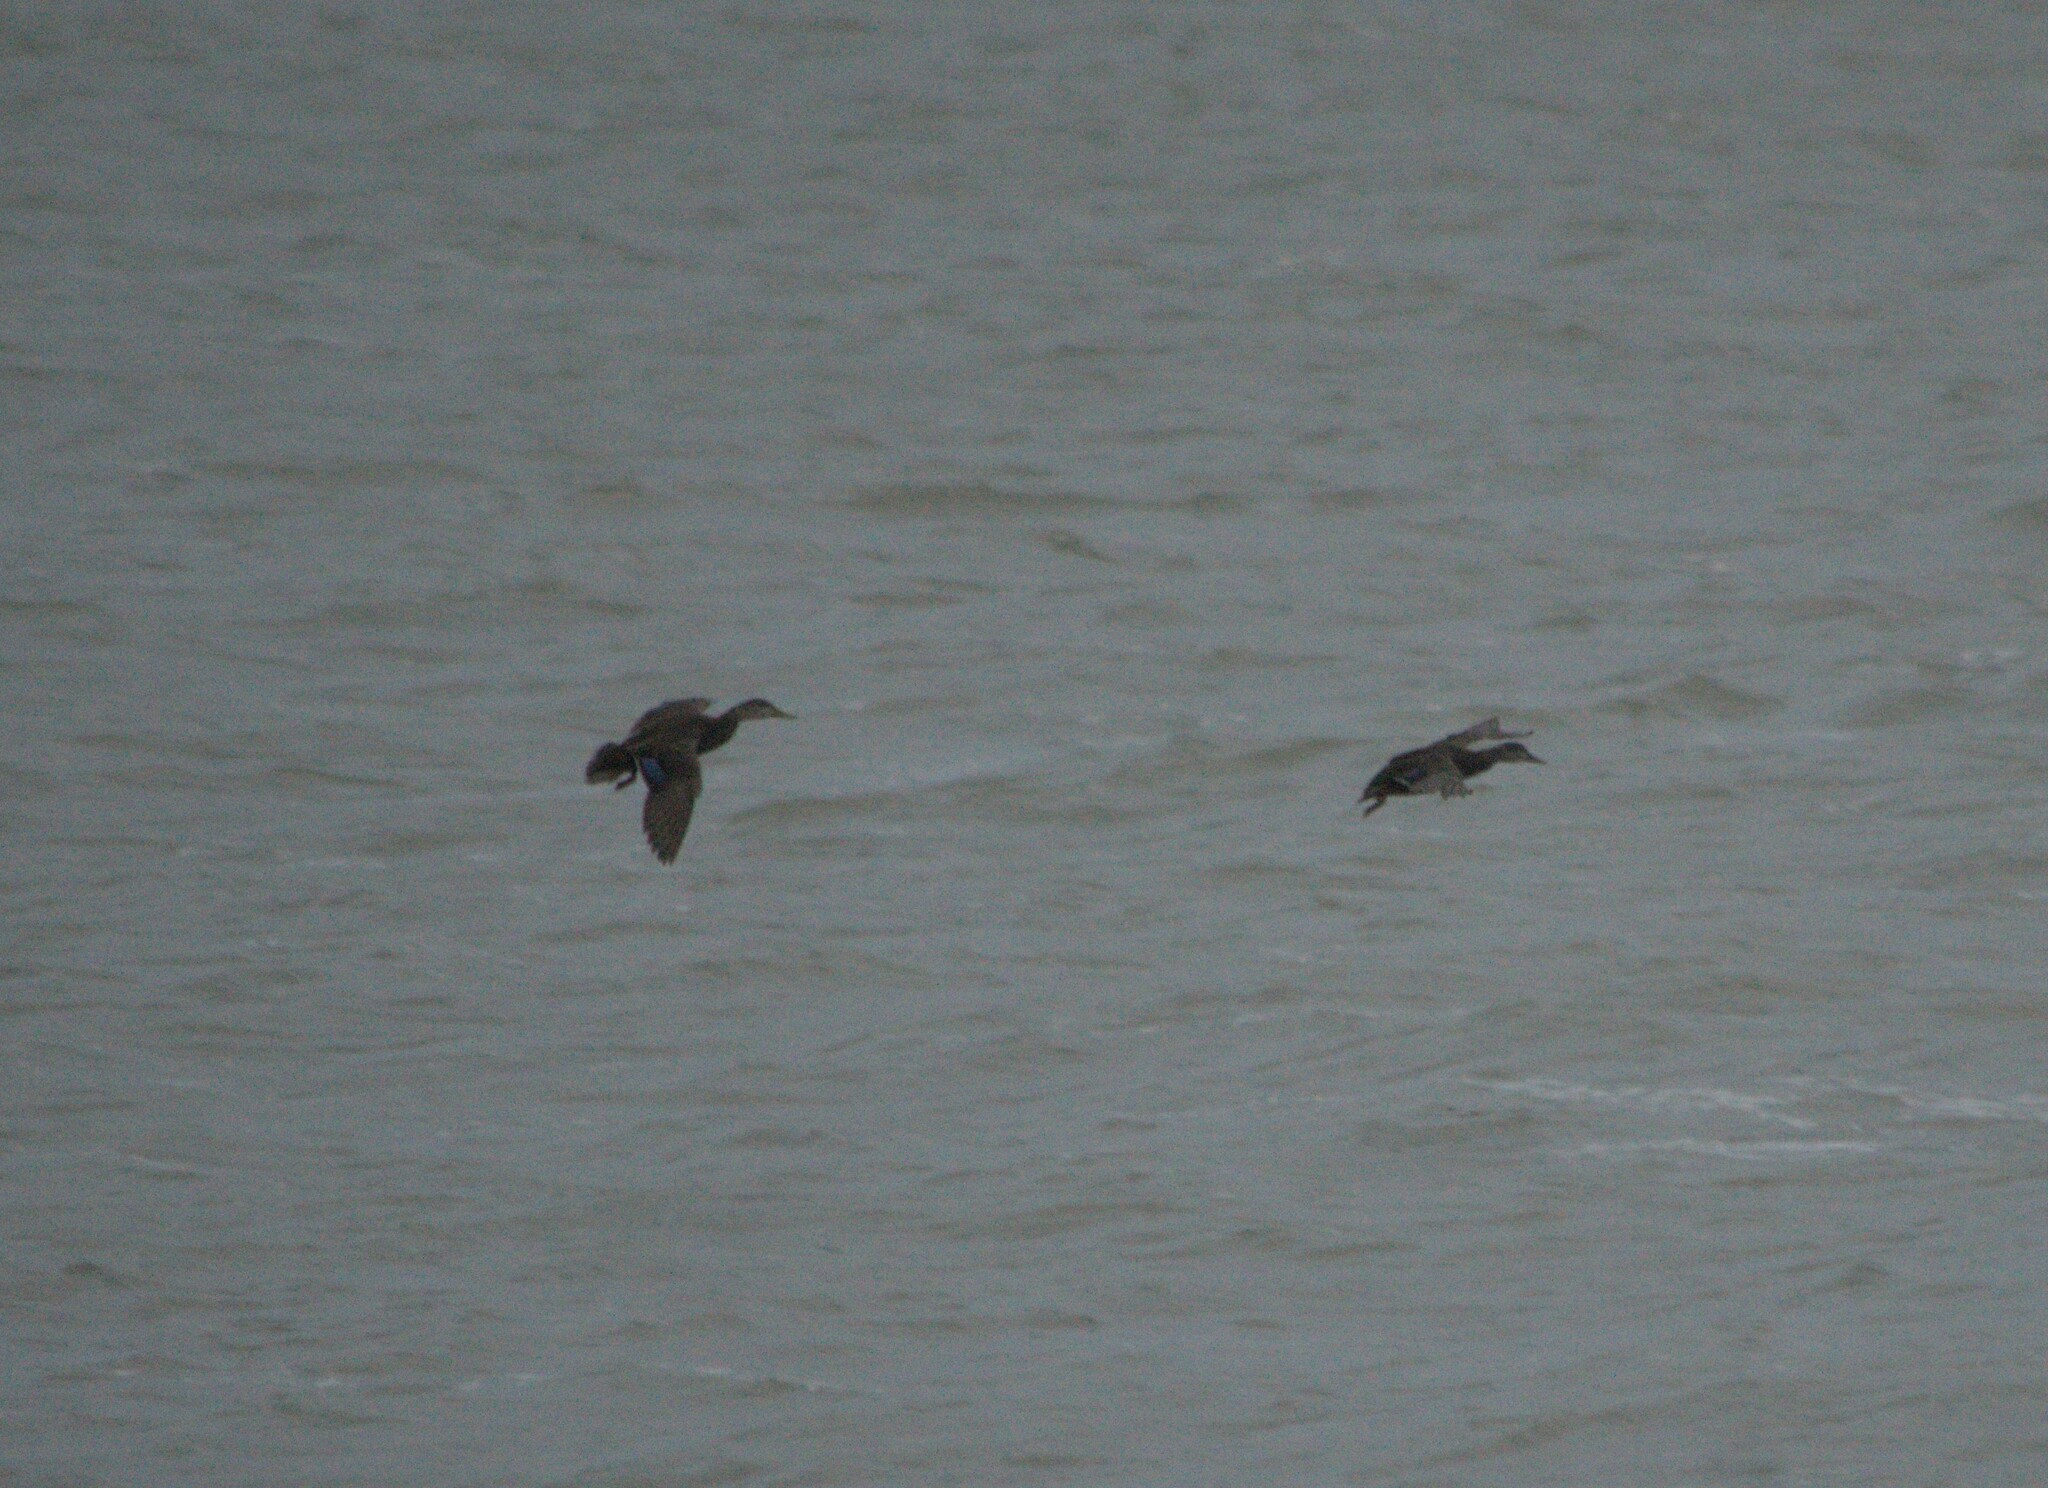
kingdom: Animalia
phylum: Chordata
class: Aves
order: Anseriformes
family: Anatidae
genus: Anas
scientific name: Anas rubripes
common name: American black duck
